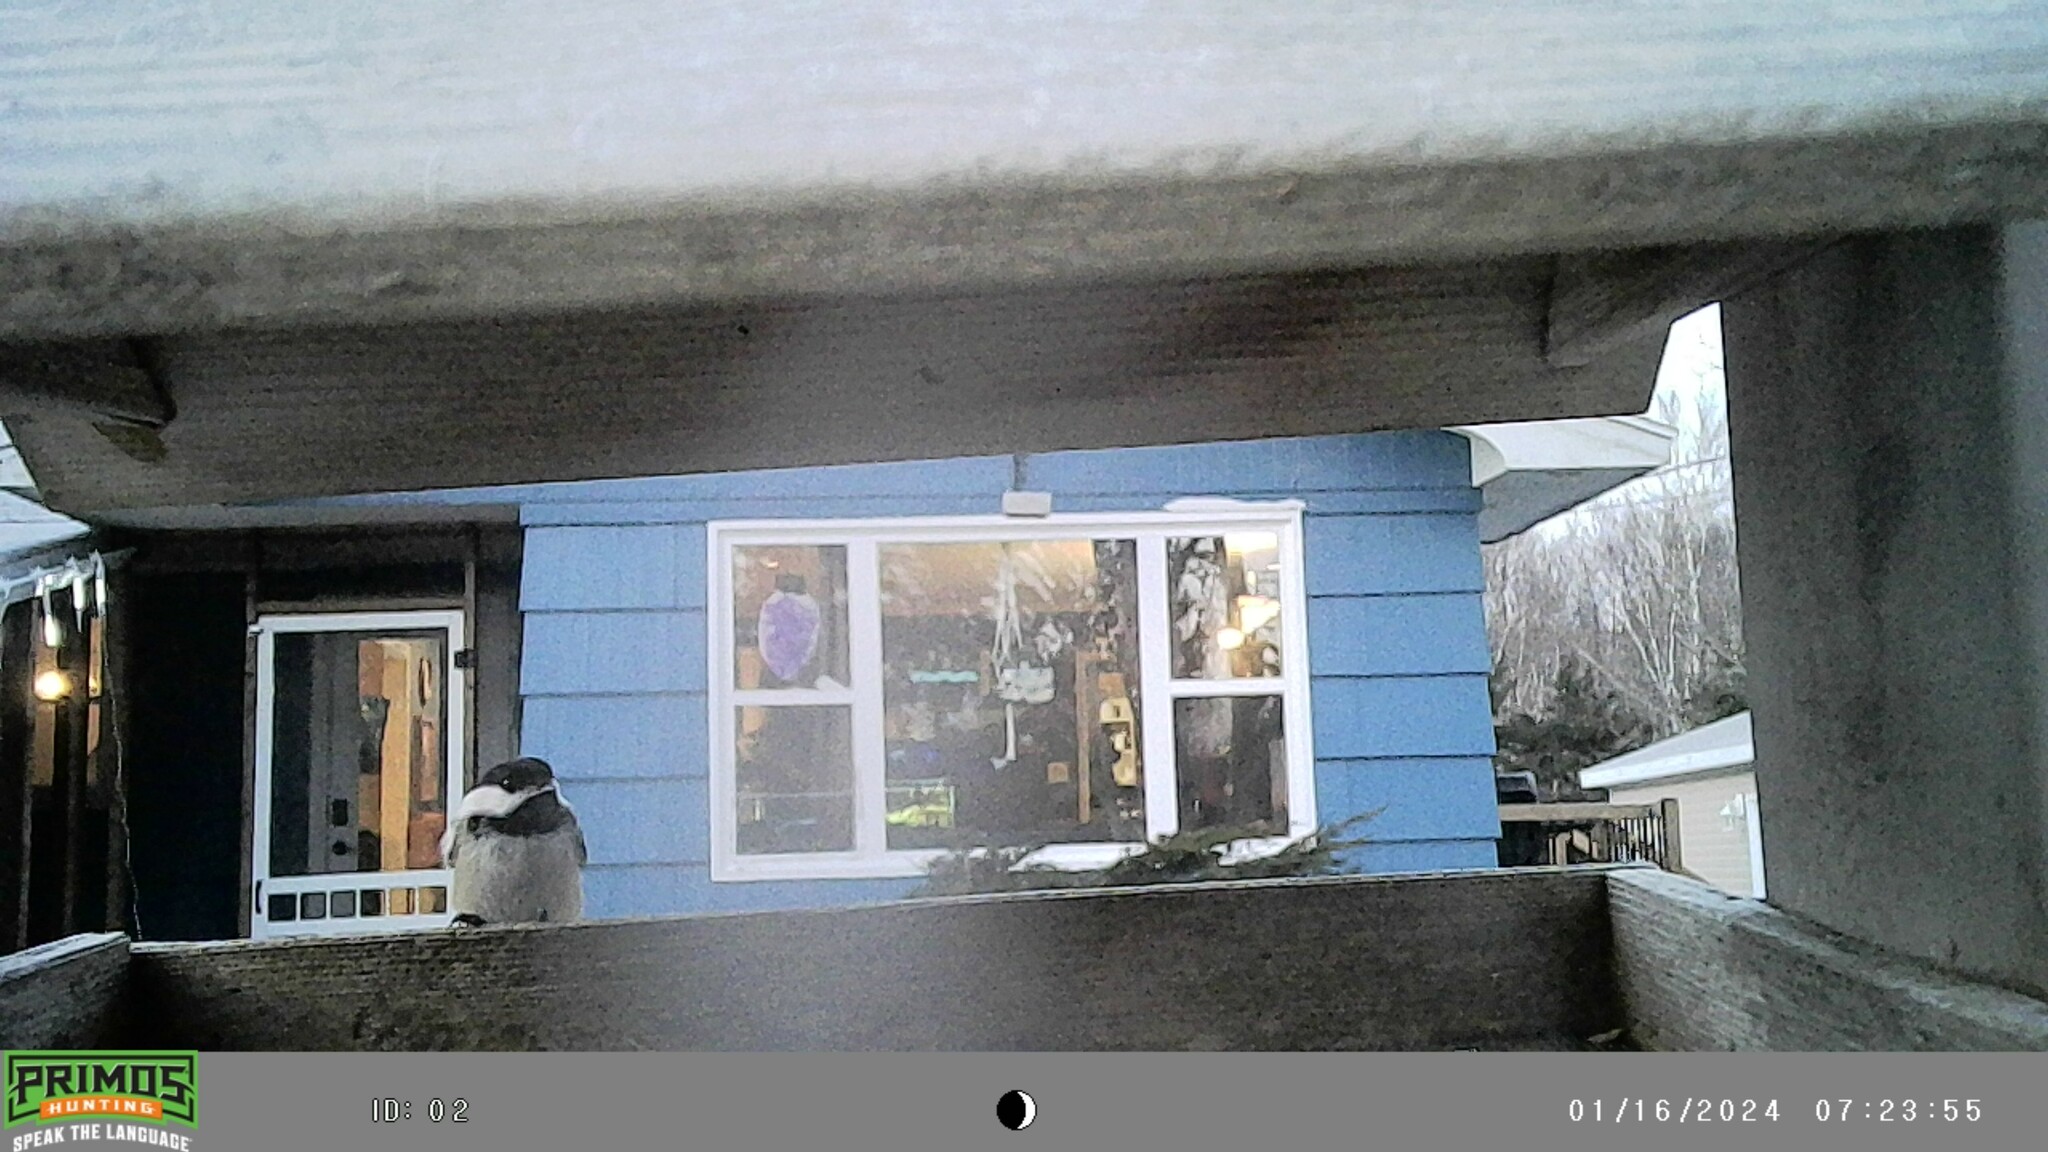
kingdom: Animalia
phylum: Chordata
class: Aves
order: Passeriformes
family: Paridae
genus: Poecile
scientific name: Poecile atricapillus
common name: Black-capped chickadee
